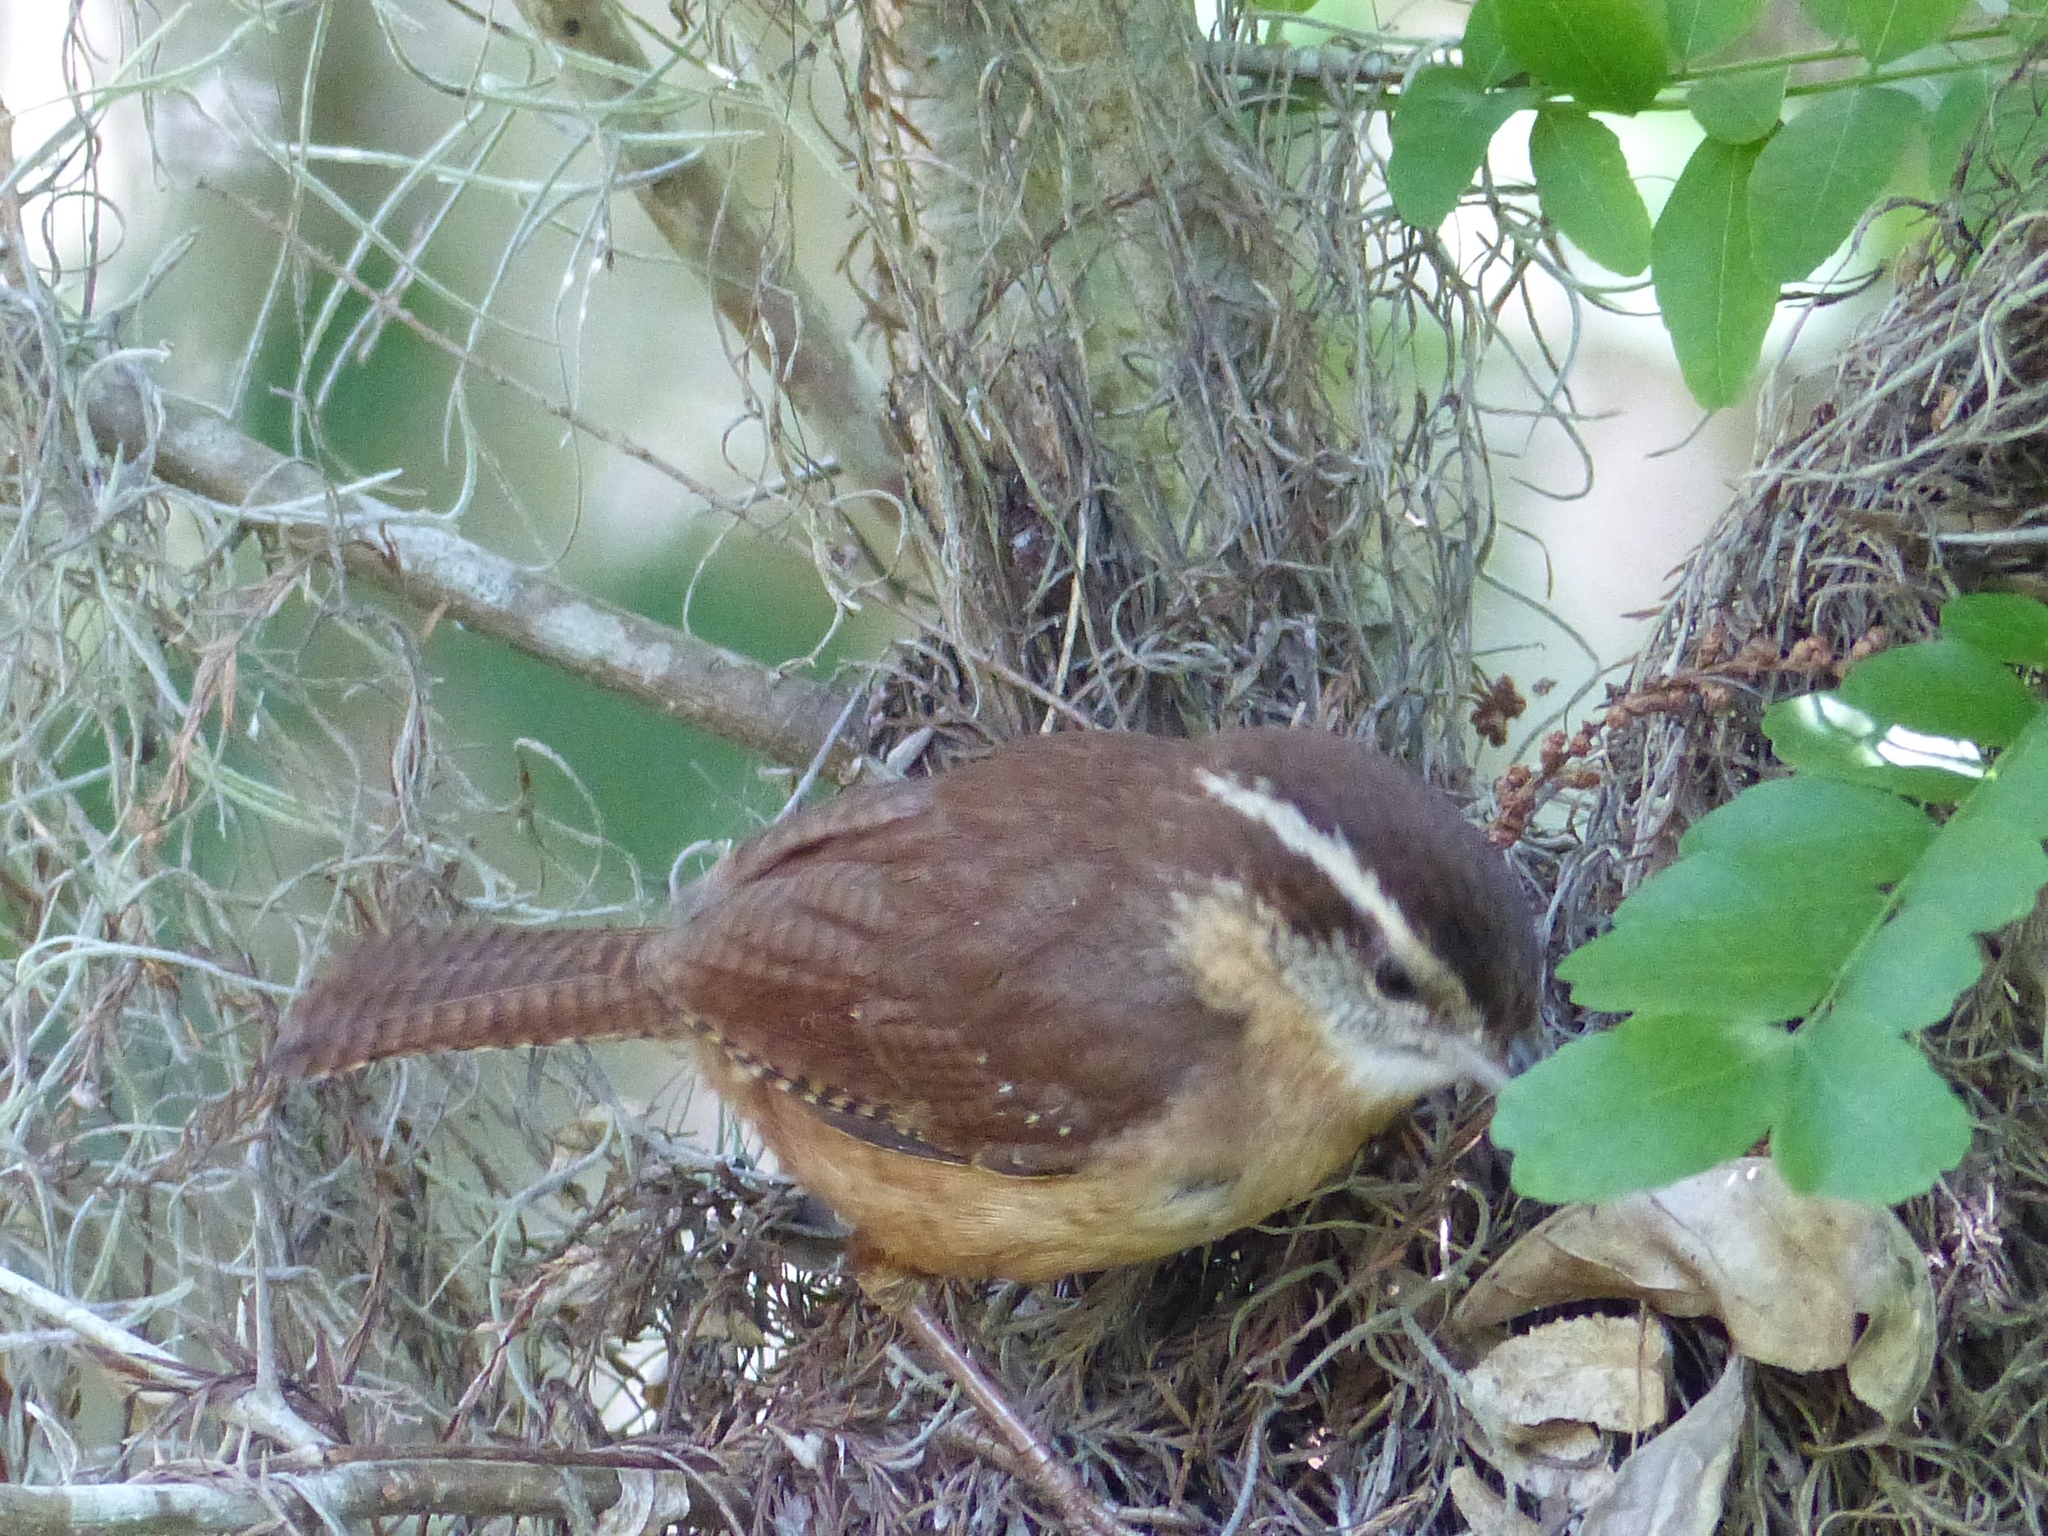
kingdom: Animalia
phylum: Chordata
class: Aves
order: Passeriformes
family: Troglodytidae
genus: Thryothorus
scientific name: Thryothorus ludovicianus
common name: Carolina wren
